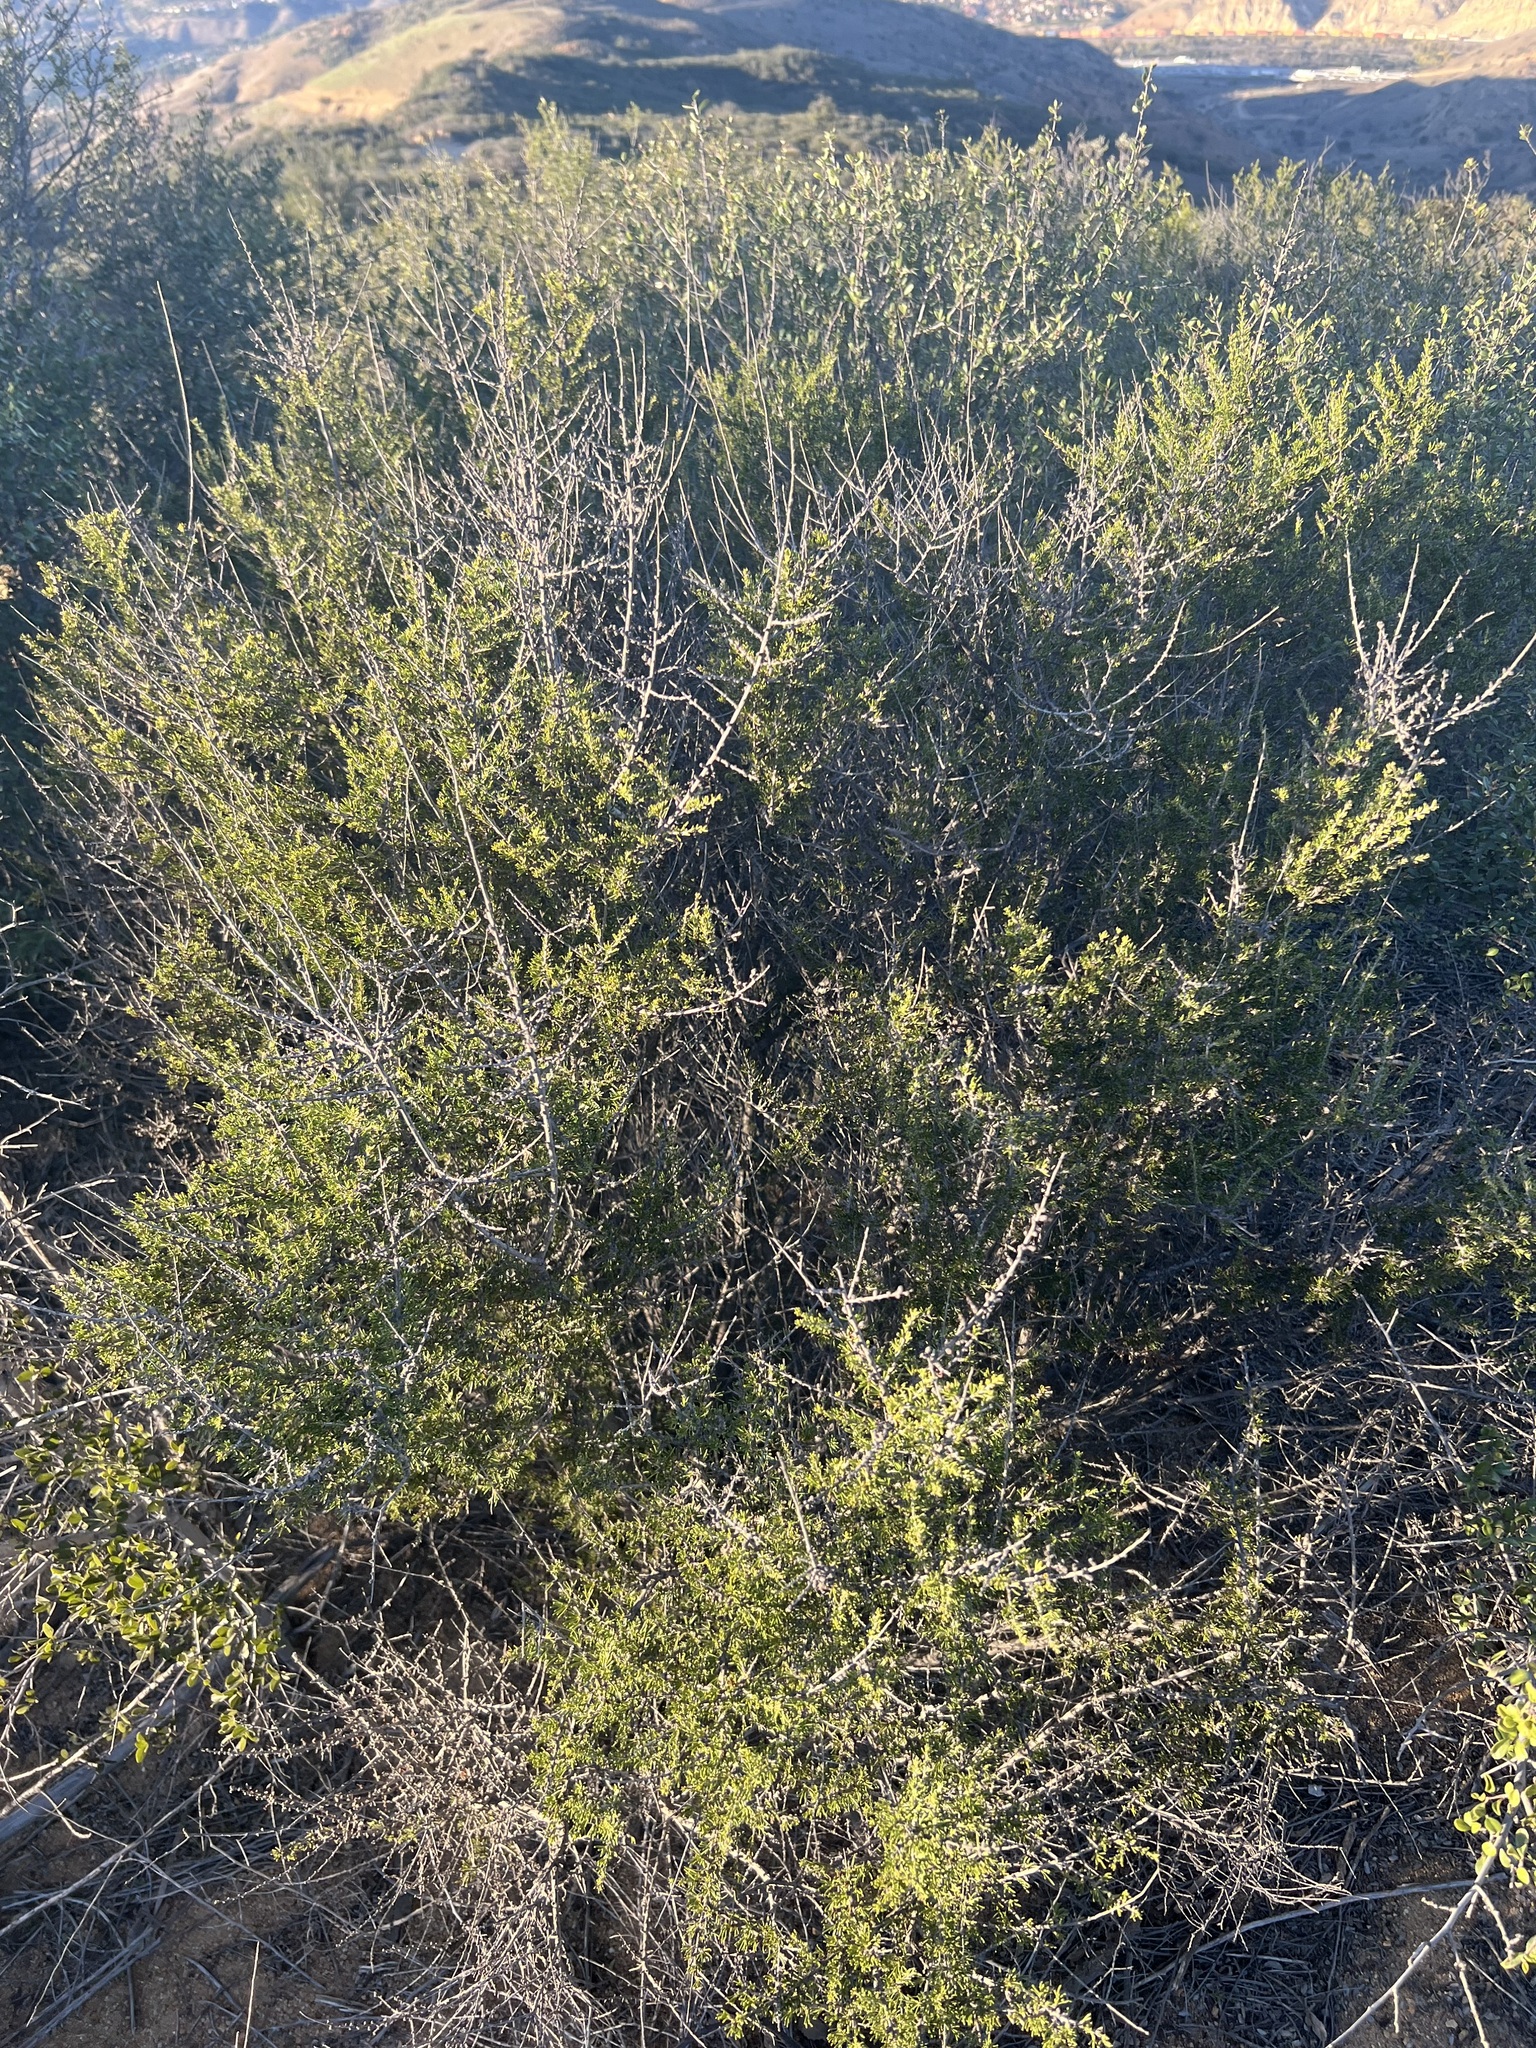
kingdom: Plantae
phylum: Tracheophyta
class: Magnoliopsida
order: Rosales
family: Rosaceae
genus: Adenostoma
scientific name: Adenostoma fasciculatum
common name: Chamise
